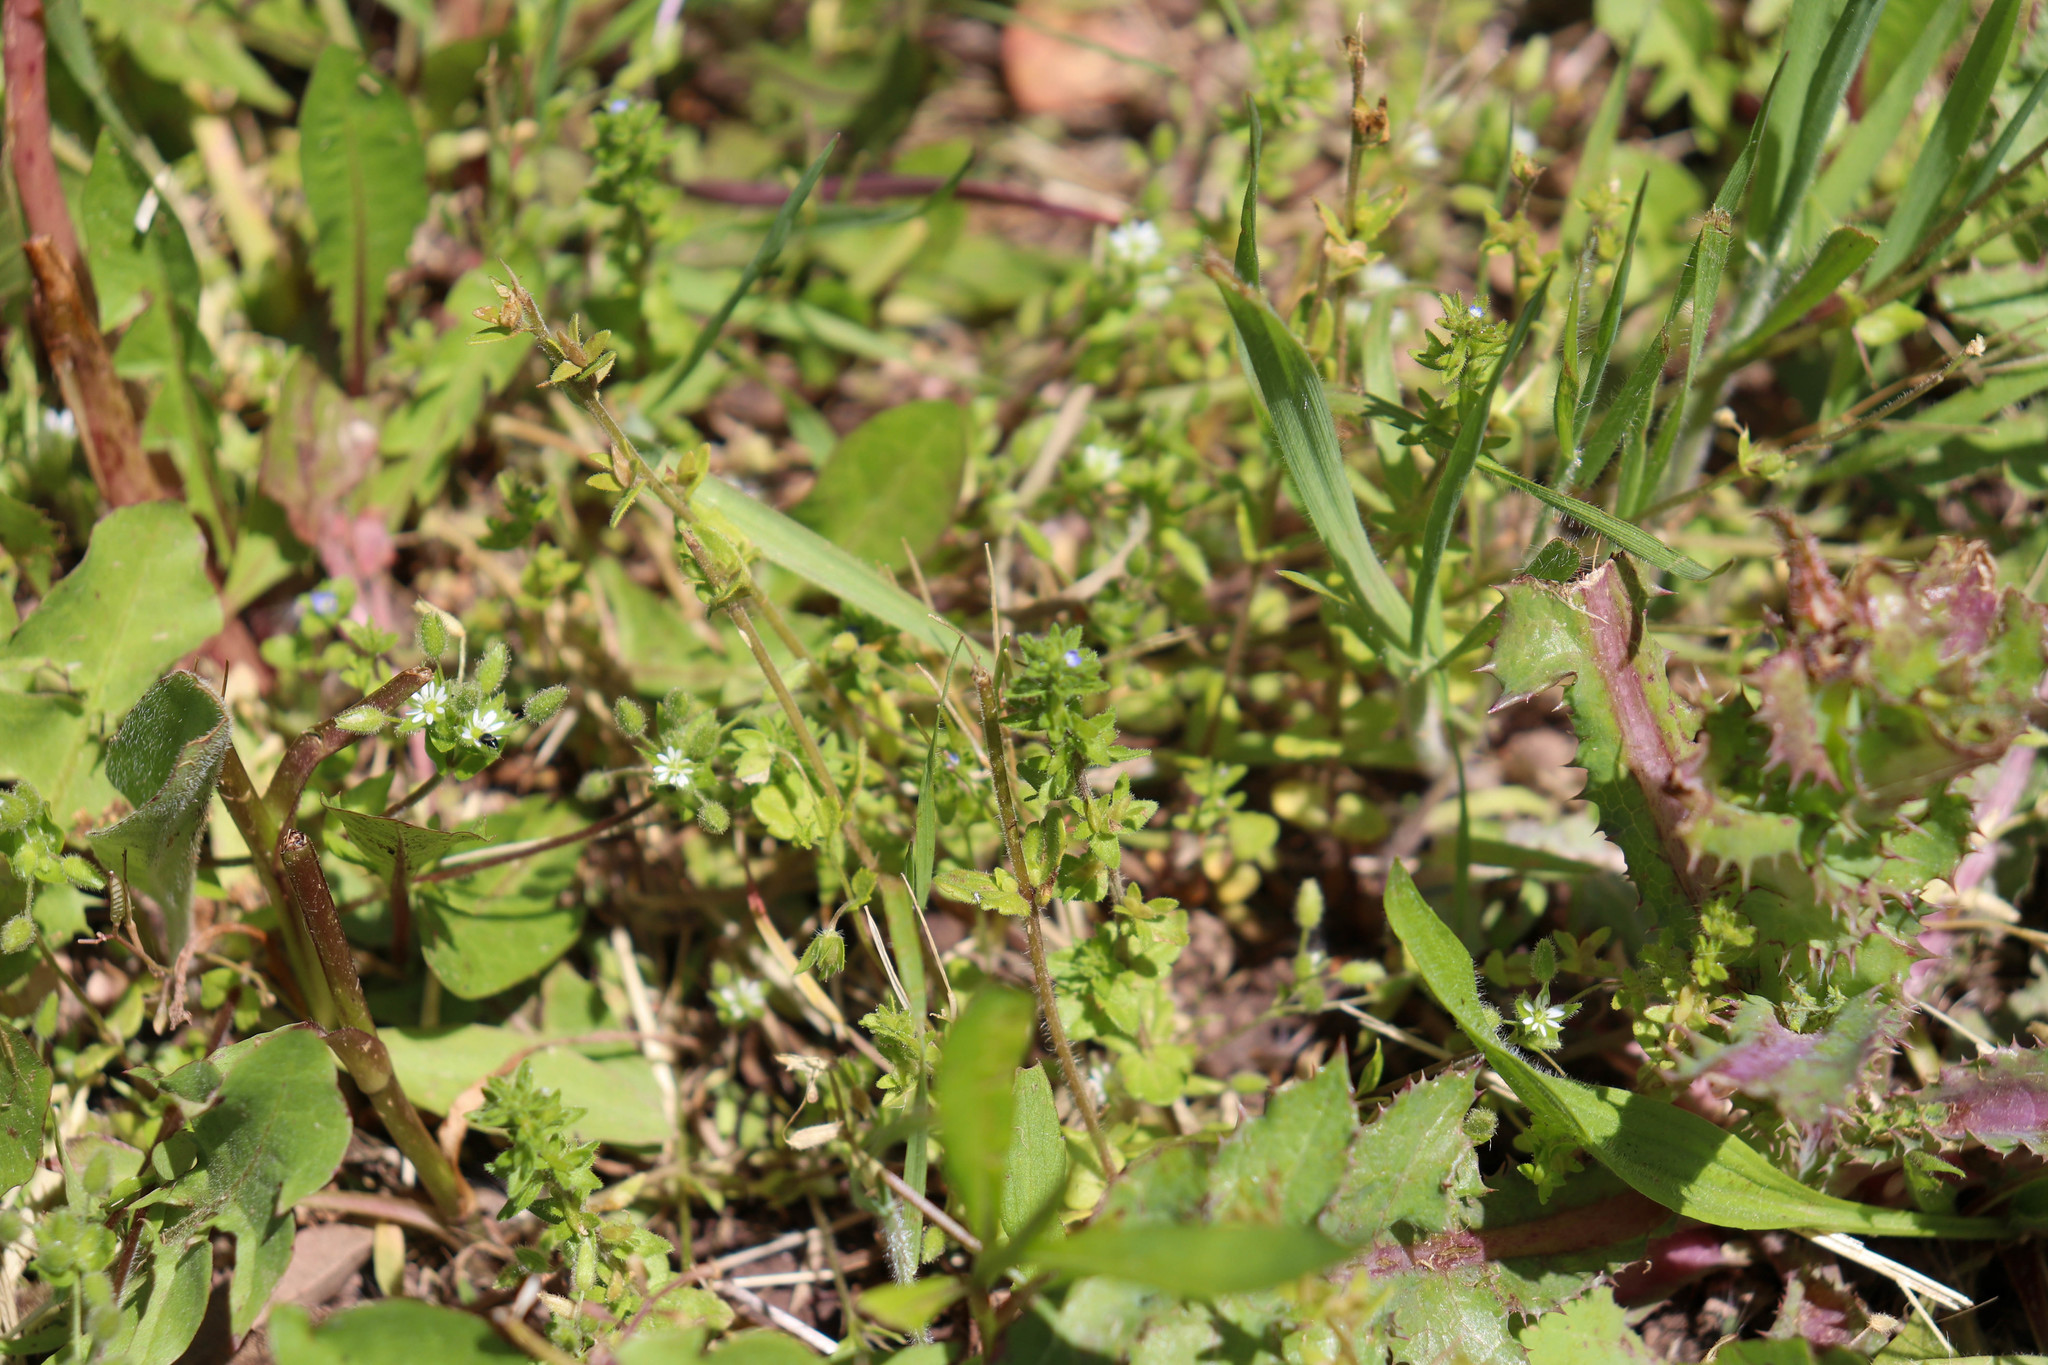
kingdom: Plantae
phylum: Tracheophyta
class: Magnoliopsida
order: Lamiales
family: Plantaginaceae
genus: Veronica
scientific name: Veronica arvensis
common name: Corn speedwell
